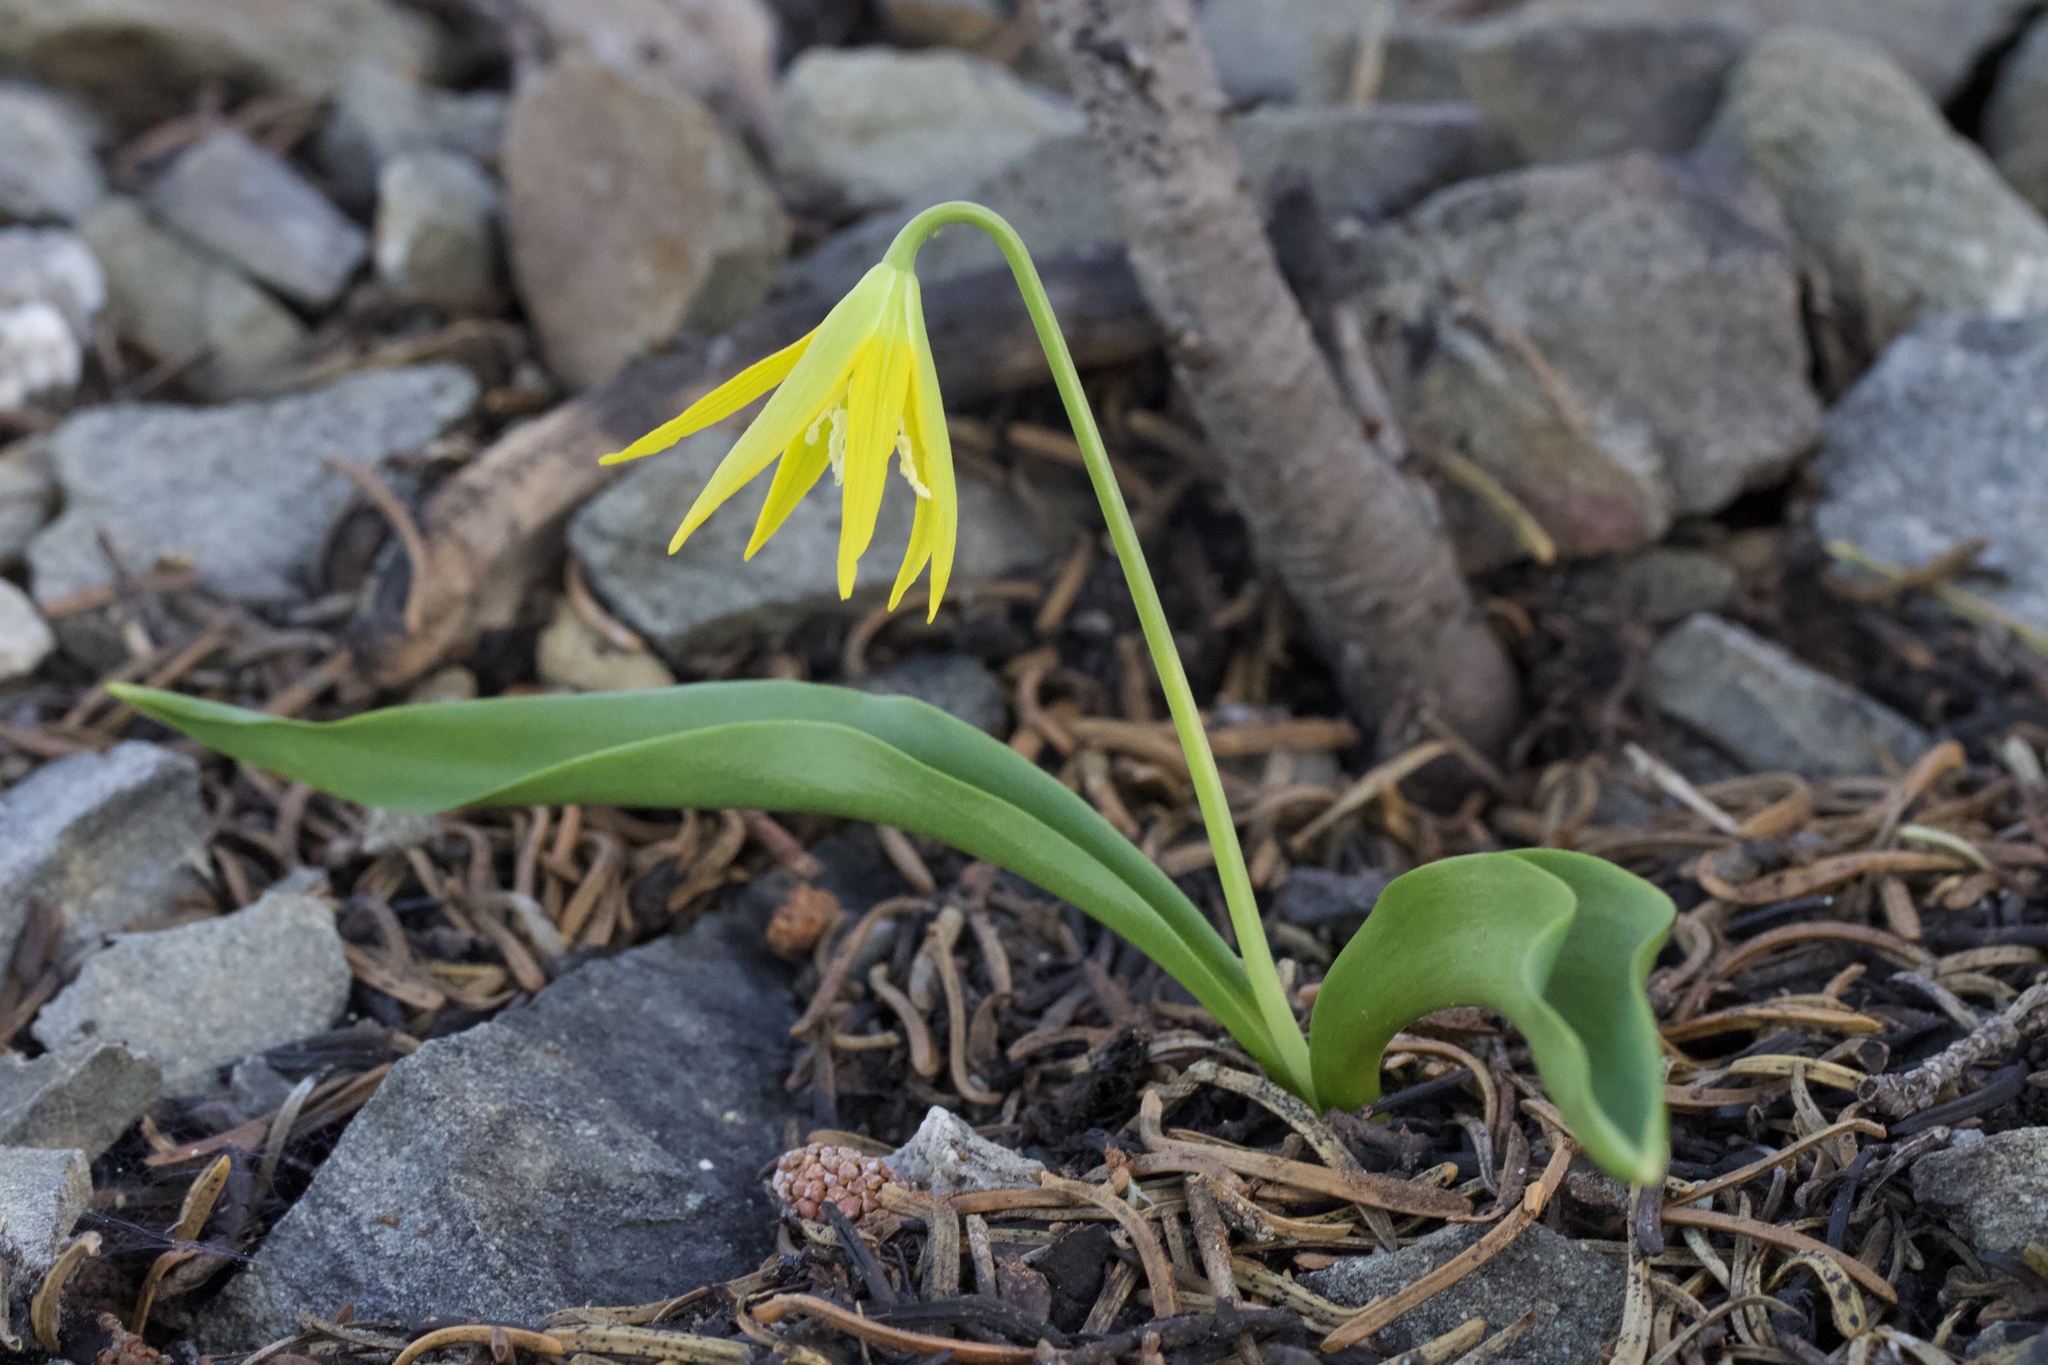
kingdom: Plantae
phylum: Tracheophyta
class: Liliopsida
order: Liliales
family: Liliaceae
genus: Erythronium
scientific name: Erythronium grandiflorum
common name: Avalanche-lily
